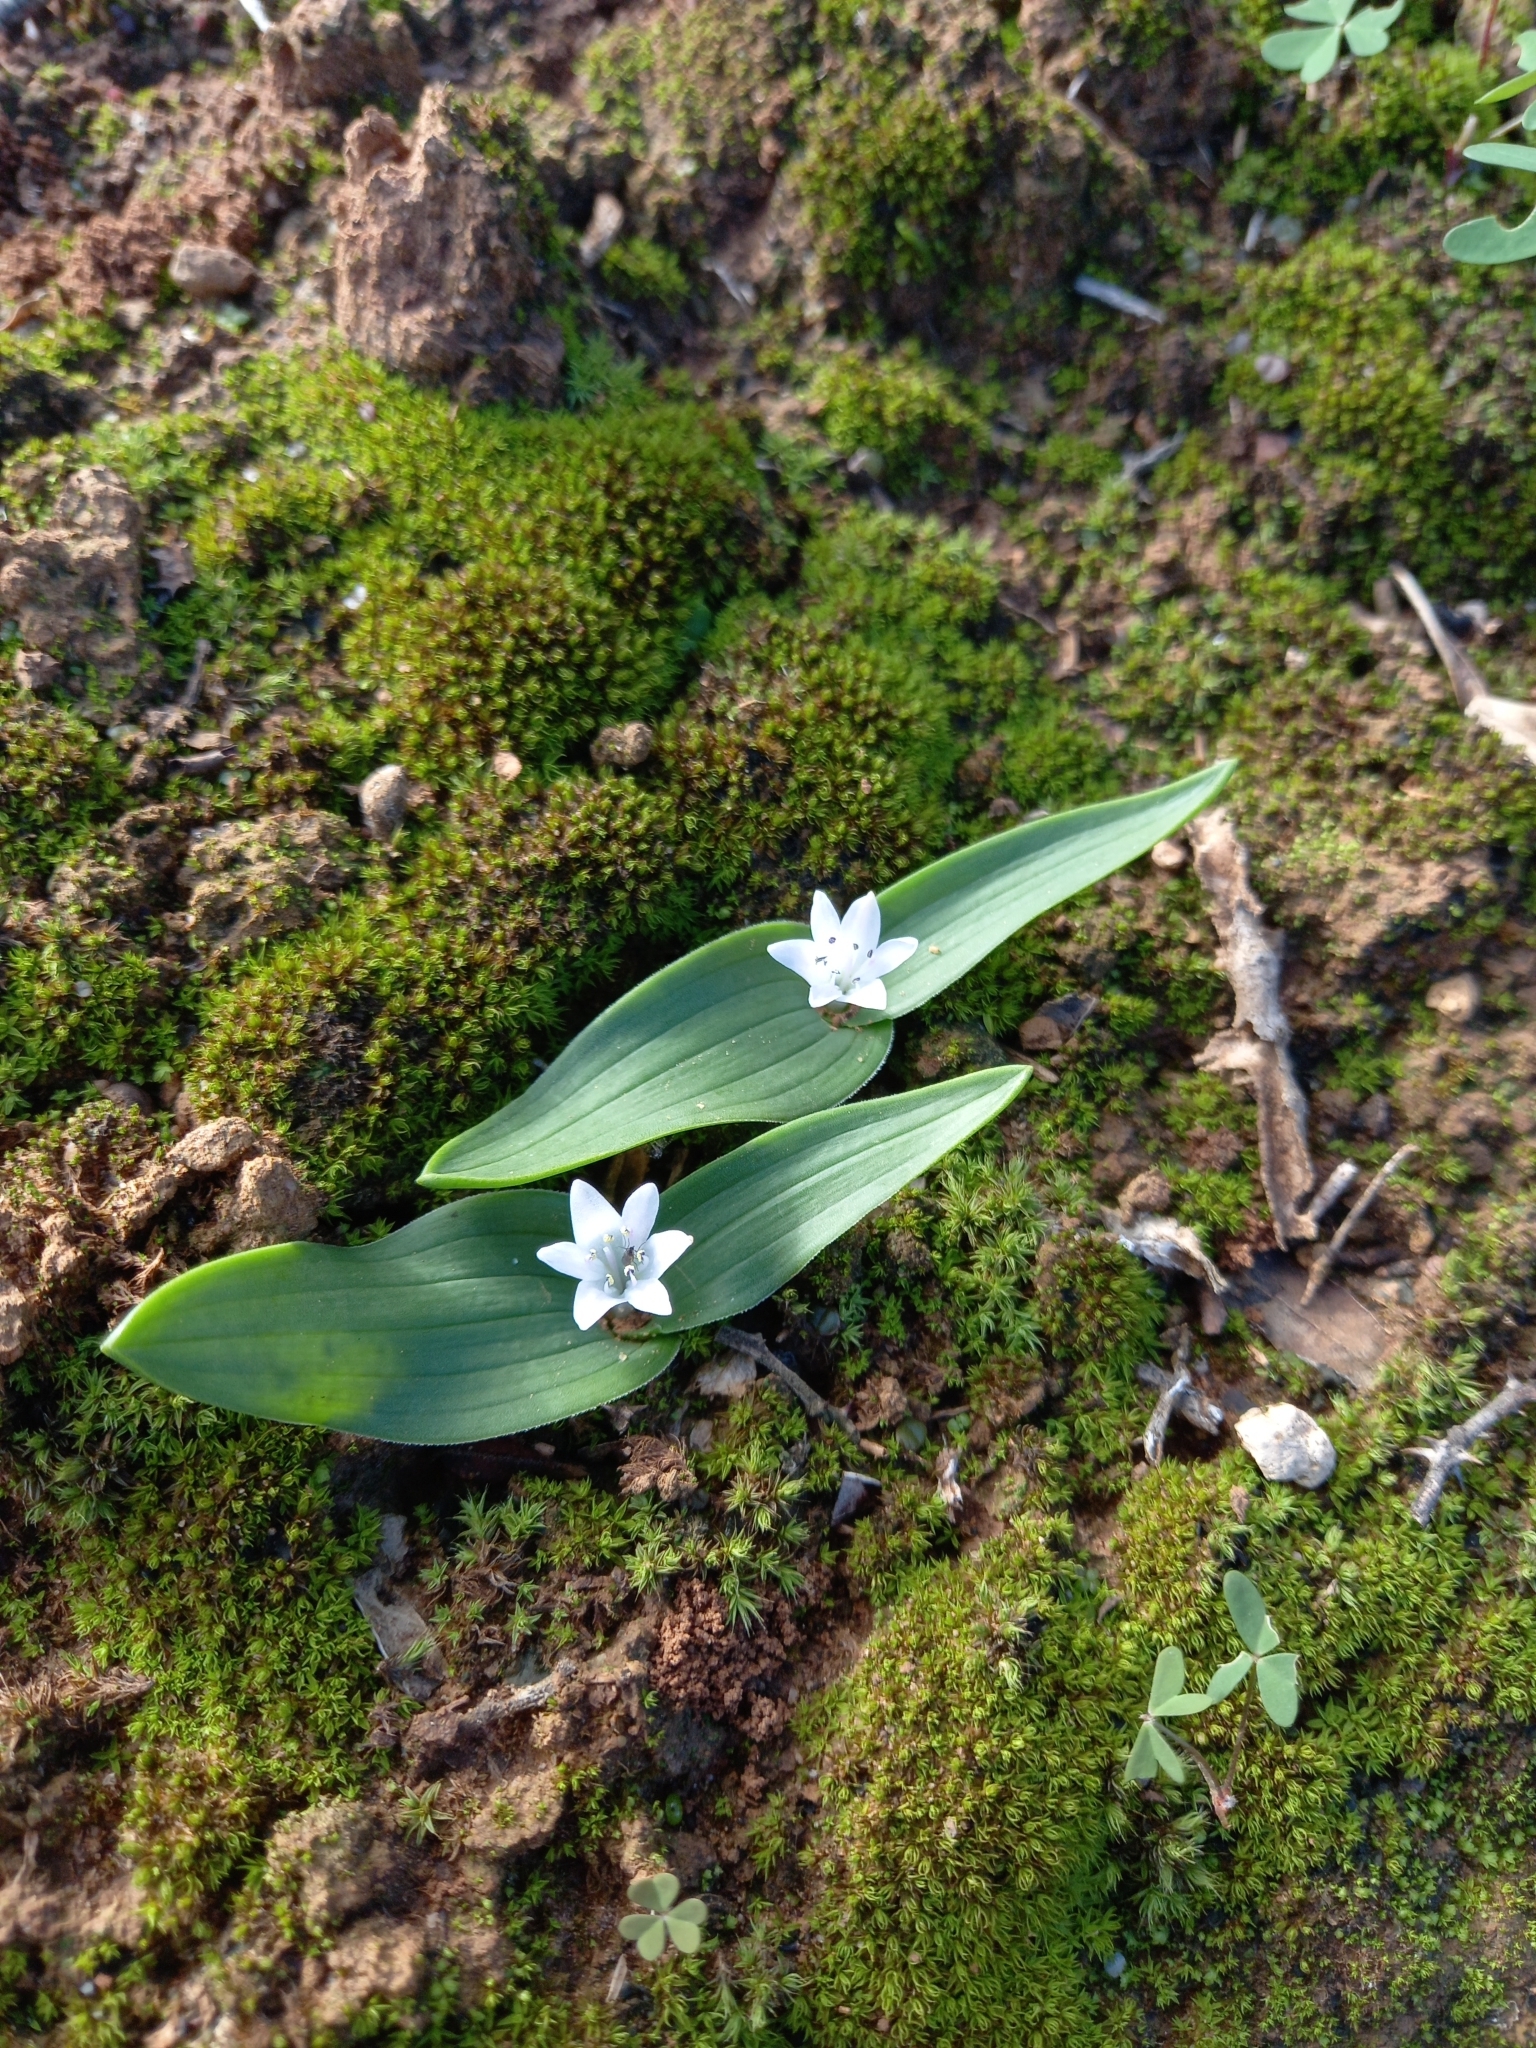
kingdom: Plantae
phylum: Tracheophyta
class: Liliopsida
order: Asparagales
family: Asparagaceae
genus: Lachenalia
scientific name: Lachenalia ensifolia
